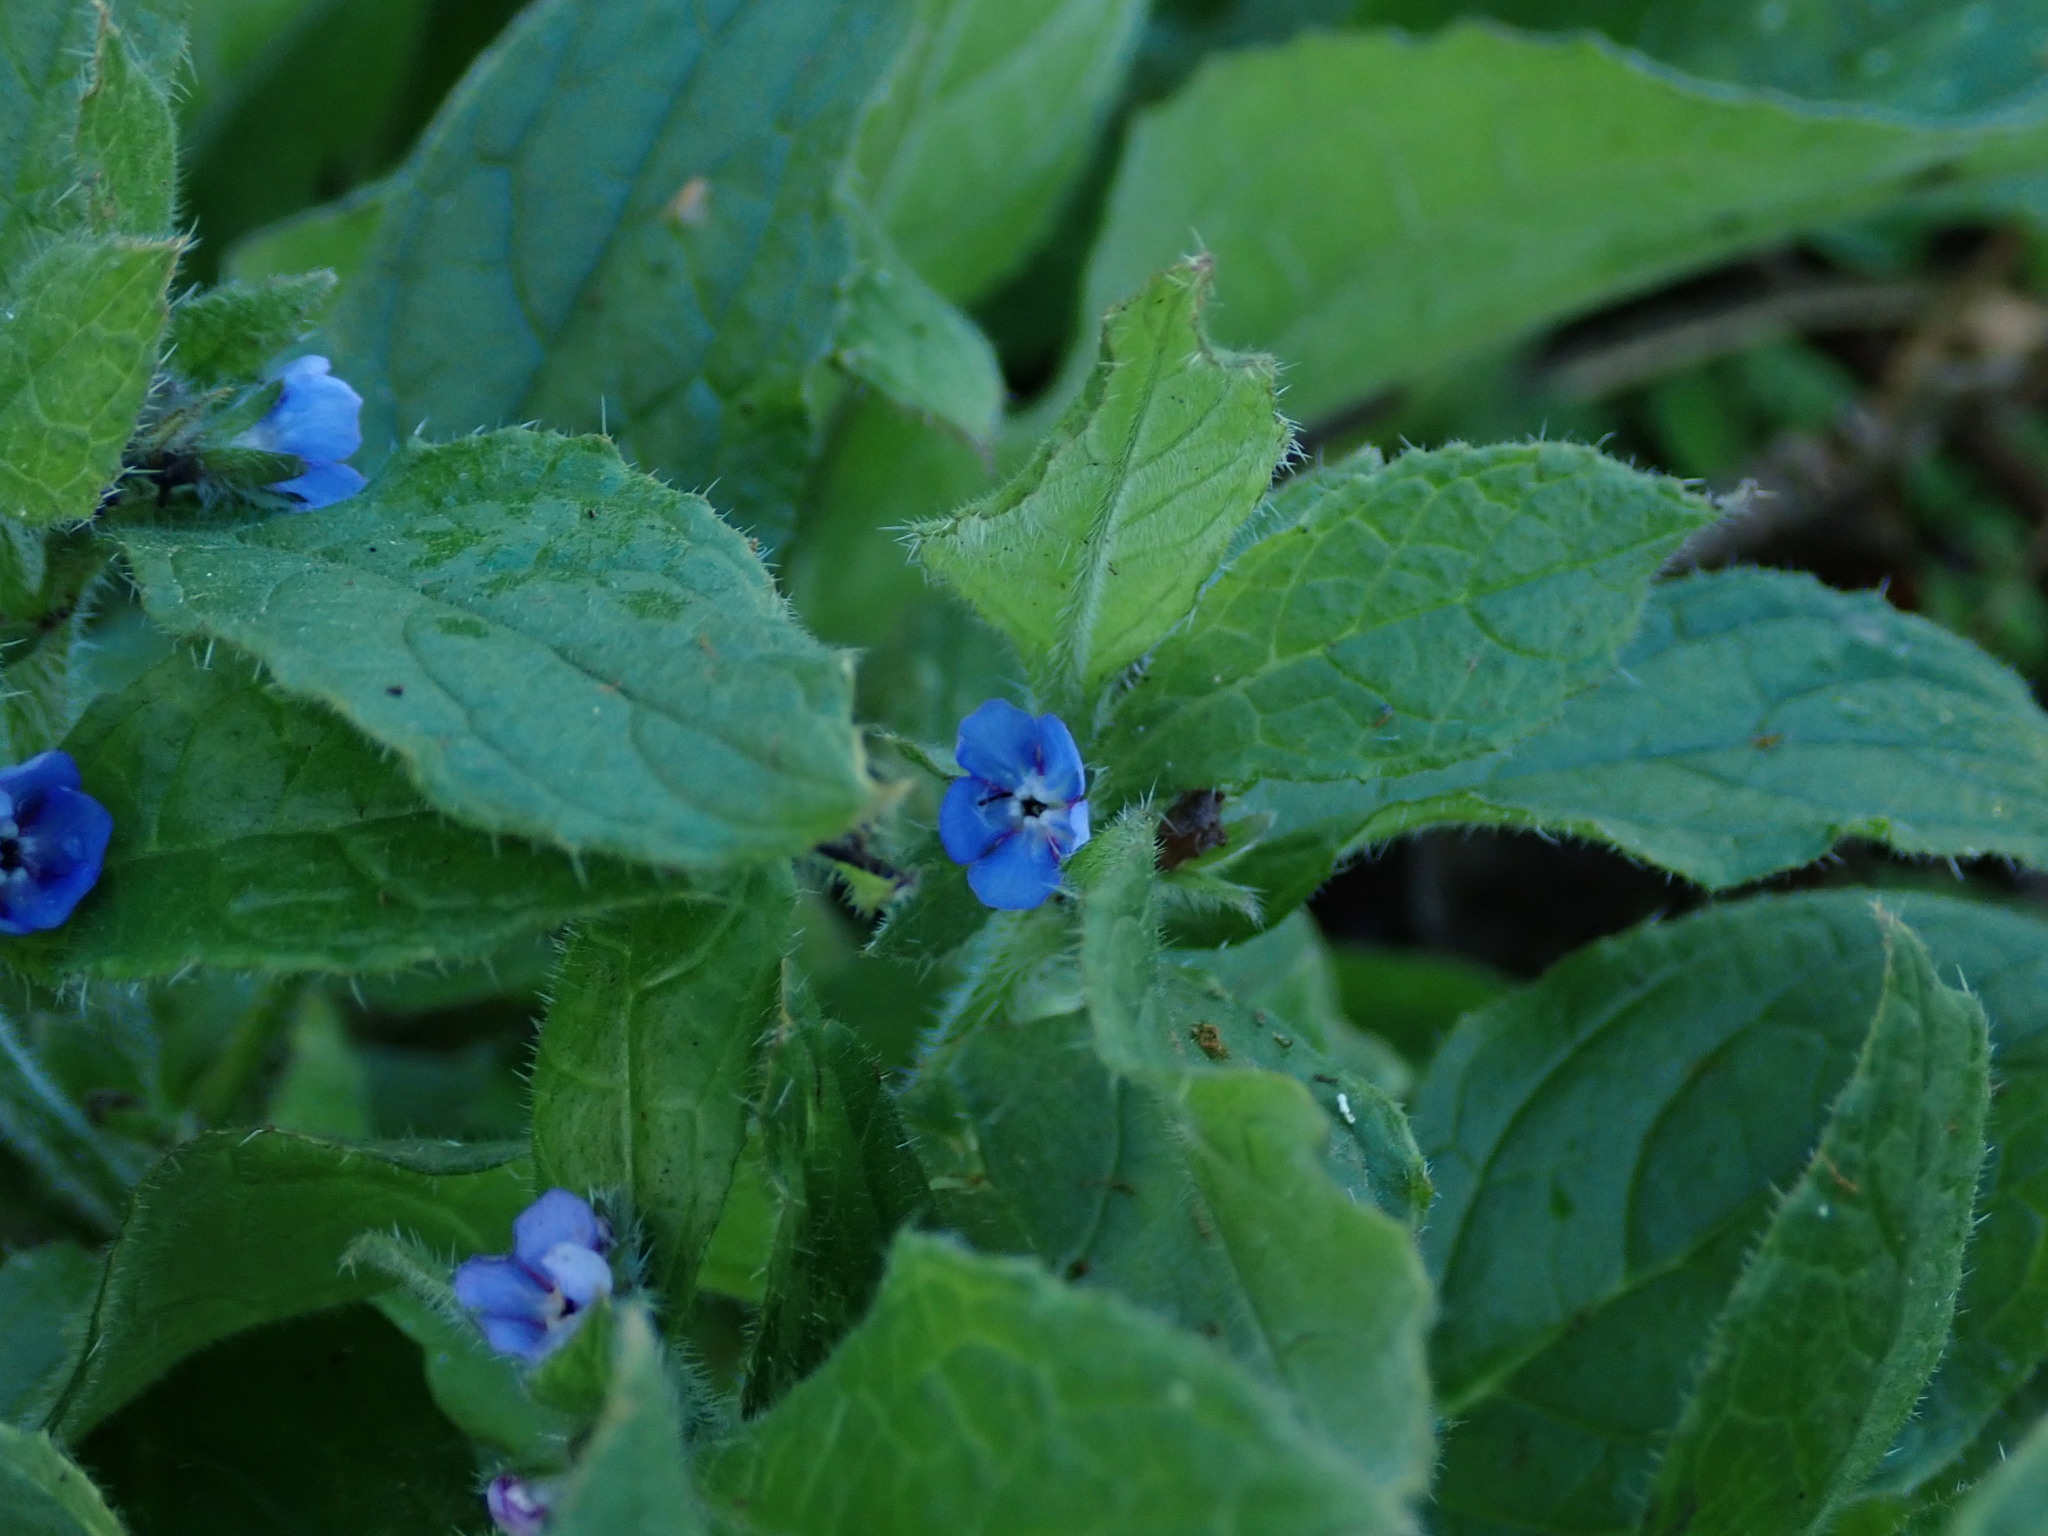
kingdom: Plantae
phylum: Tracheophyta
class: Magnoliopsida
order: Boraginales
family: Boraginaceae
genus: Pentaglottis
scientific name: Pentaglottis sempervirens
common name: Green alkanet
